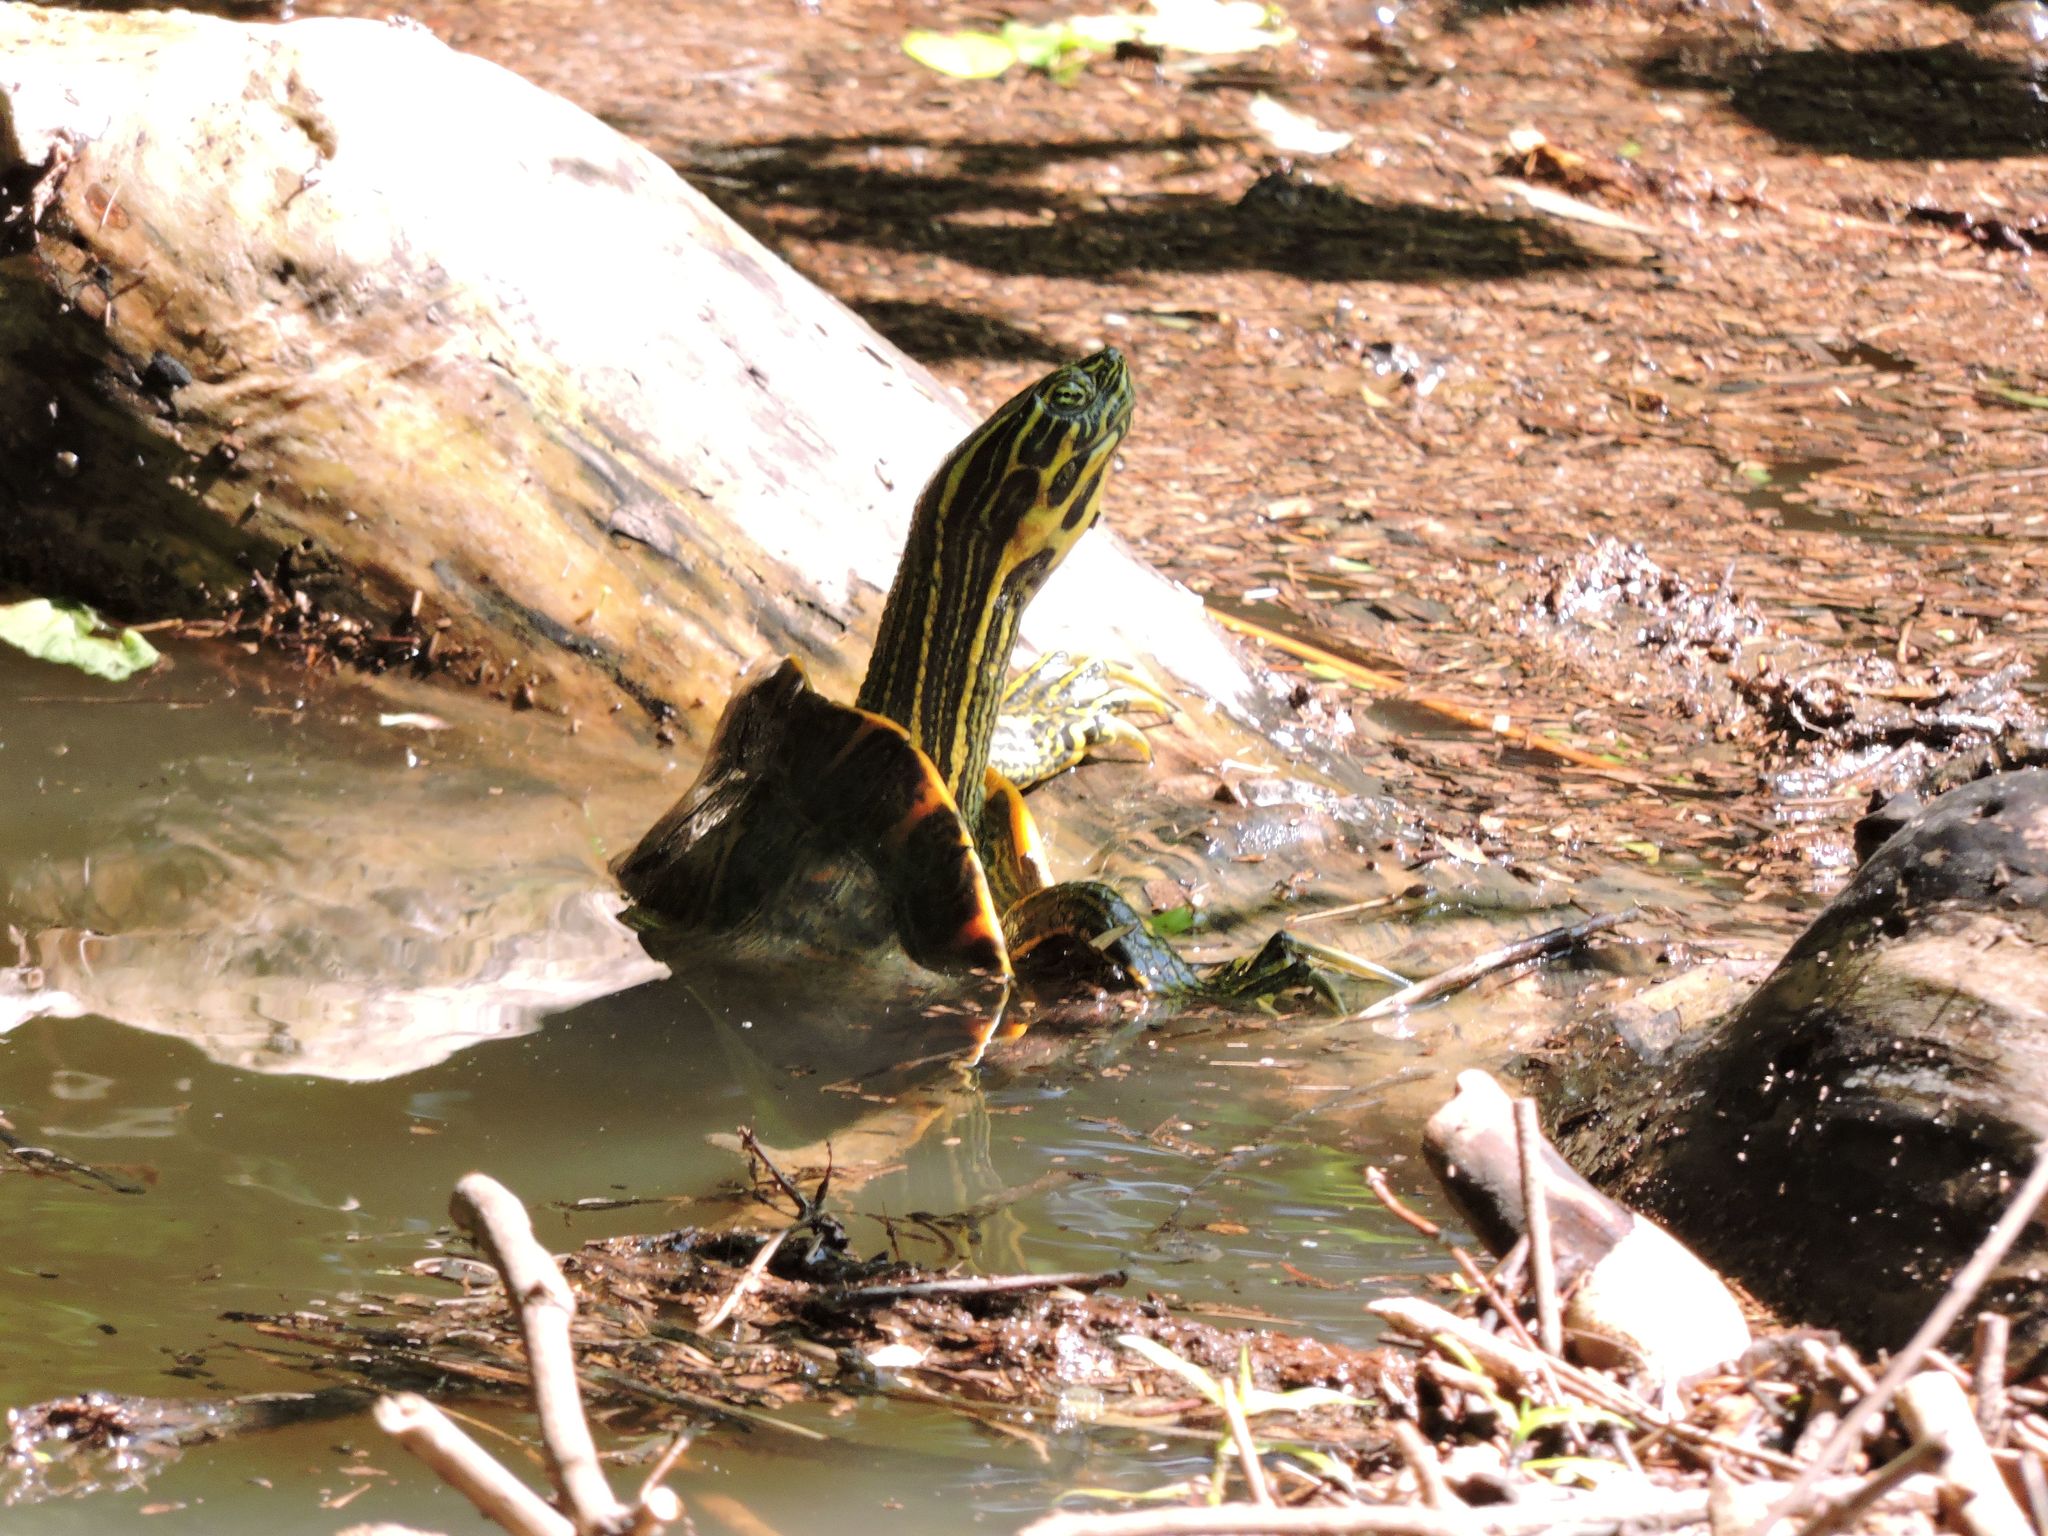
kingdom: Animalia
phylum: Chordata
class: Testudines
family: Emydidae
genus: Pseudemys
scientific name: Pseudemys concinna
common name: Eastern river cooter
